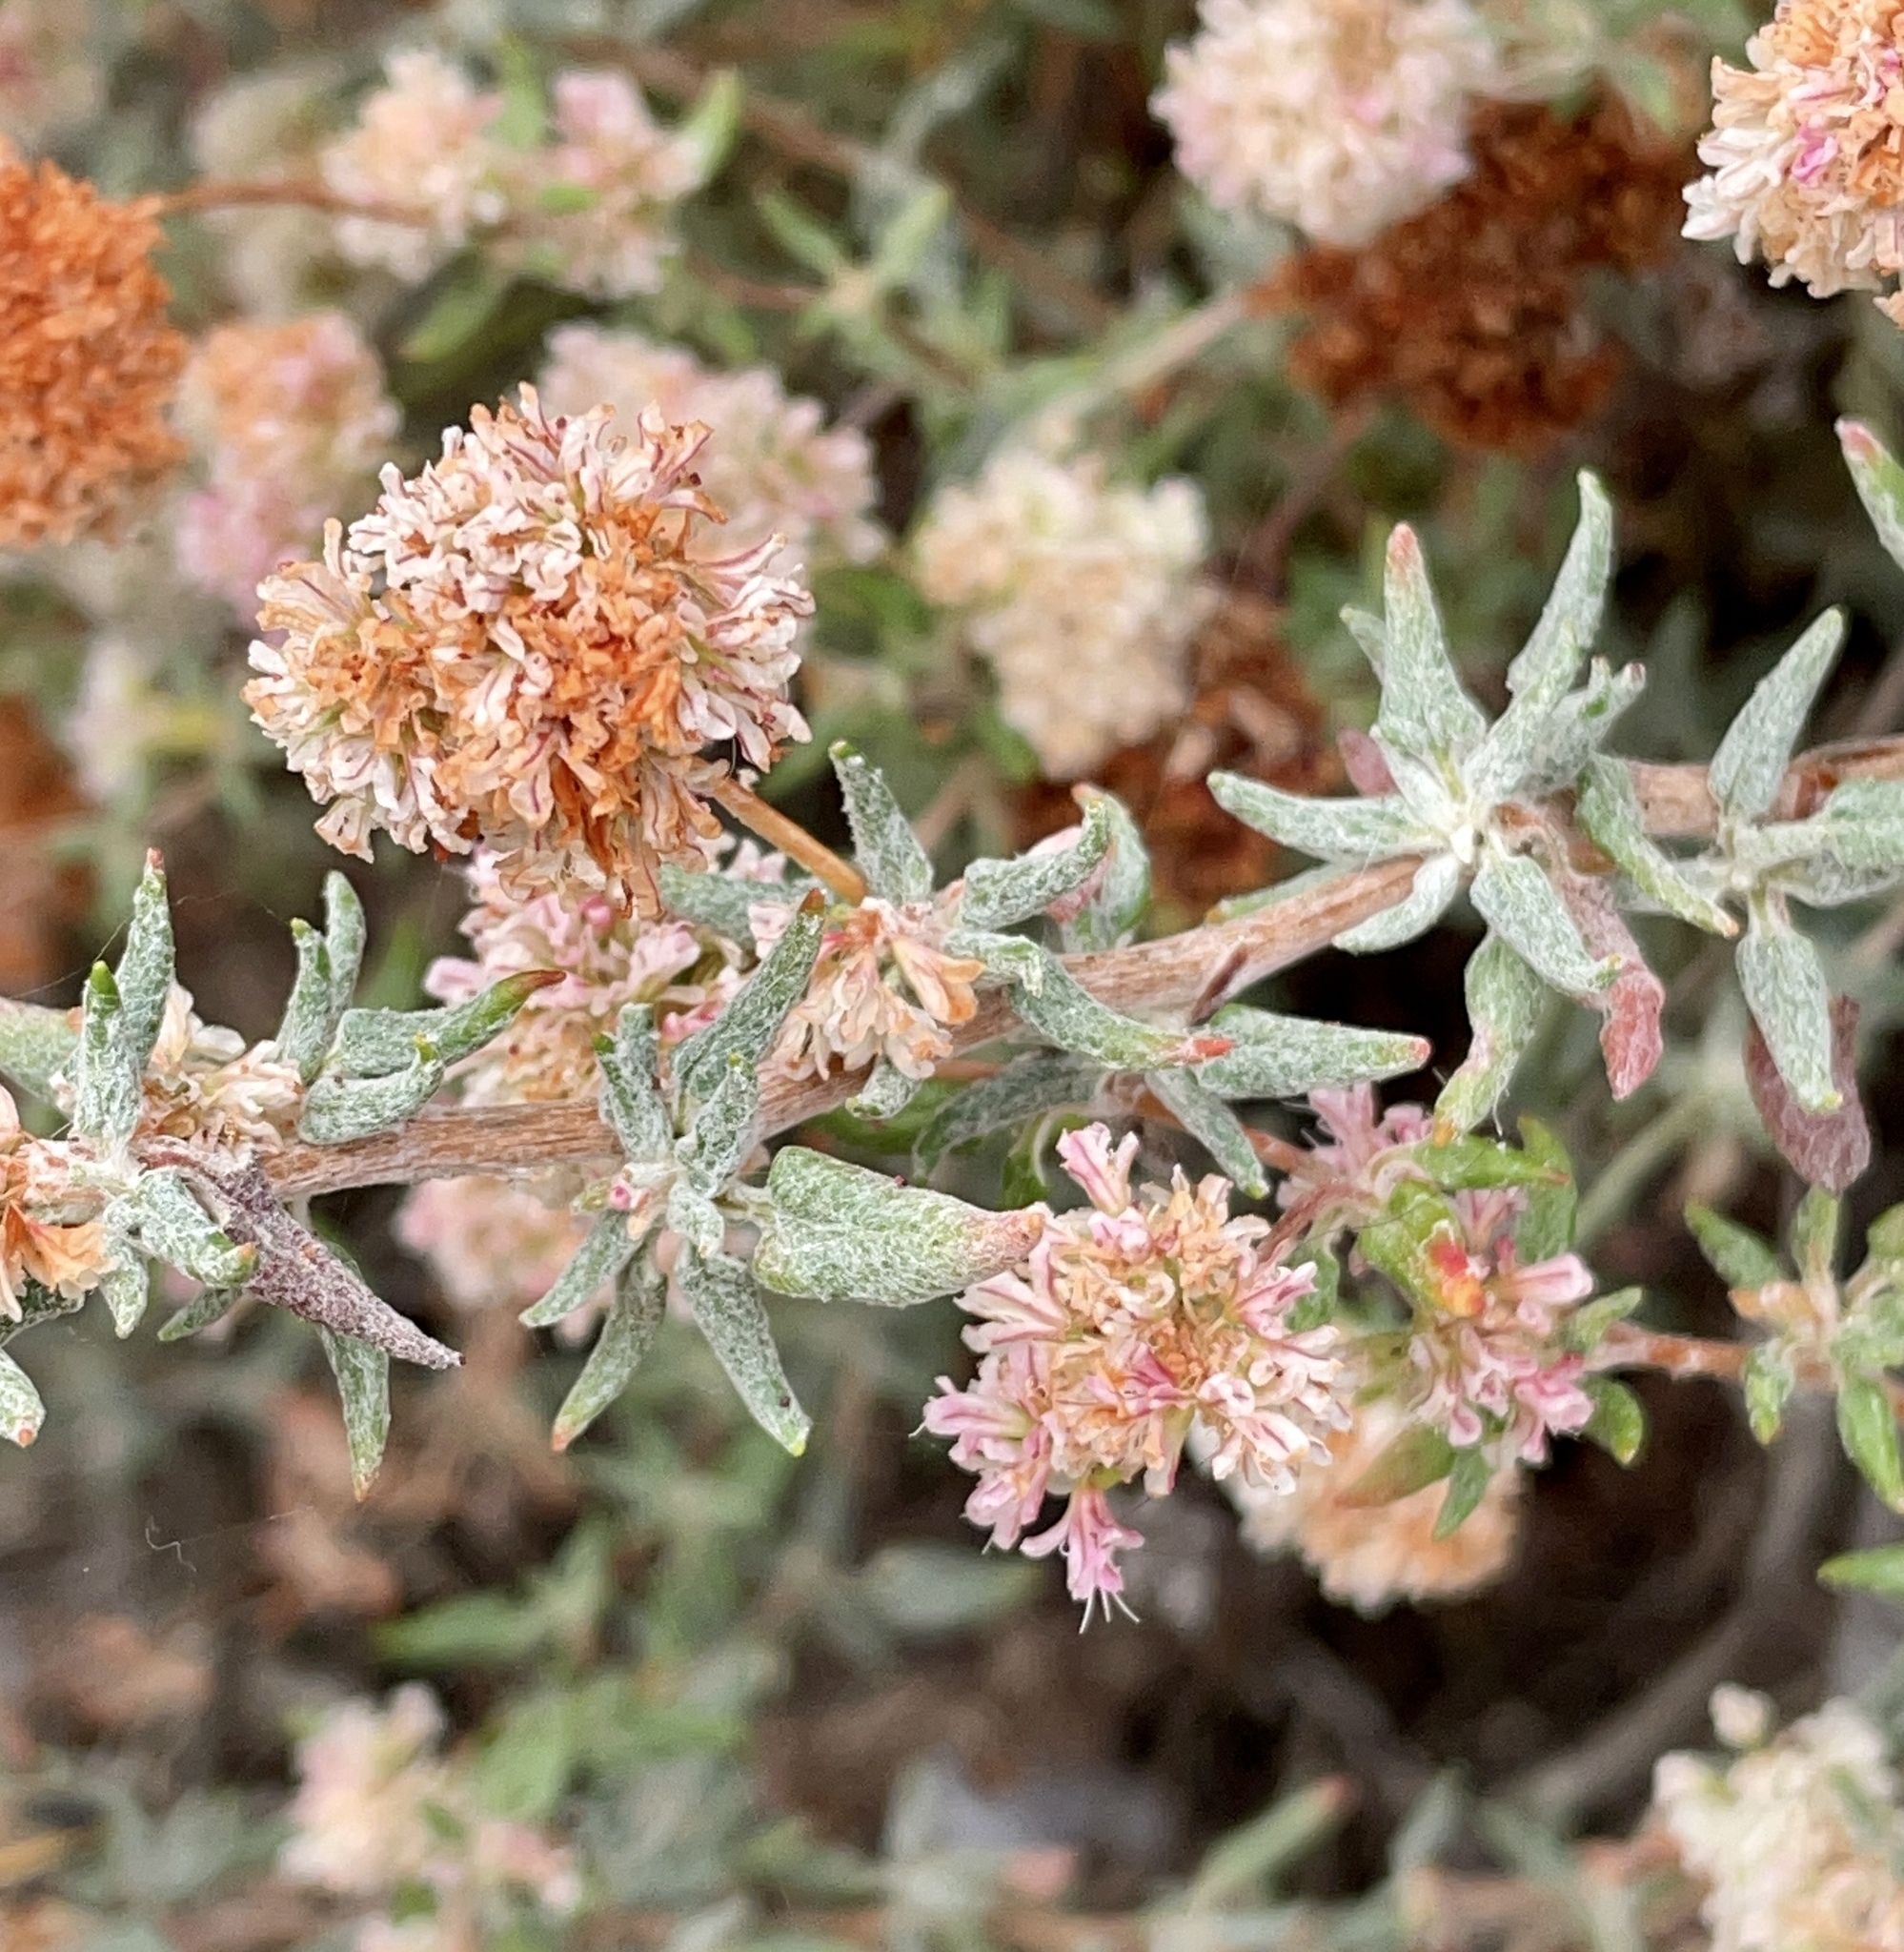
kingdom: Plantae
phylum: Tracheophyta
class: Magnoliopsida
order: Caryophyllales
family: Polygonaceae
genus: Eriogonum
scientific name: Eriogonum parvifolium
